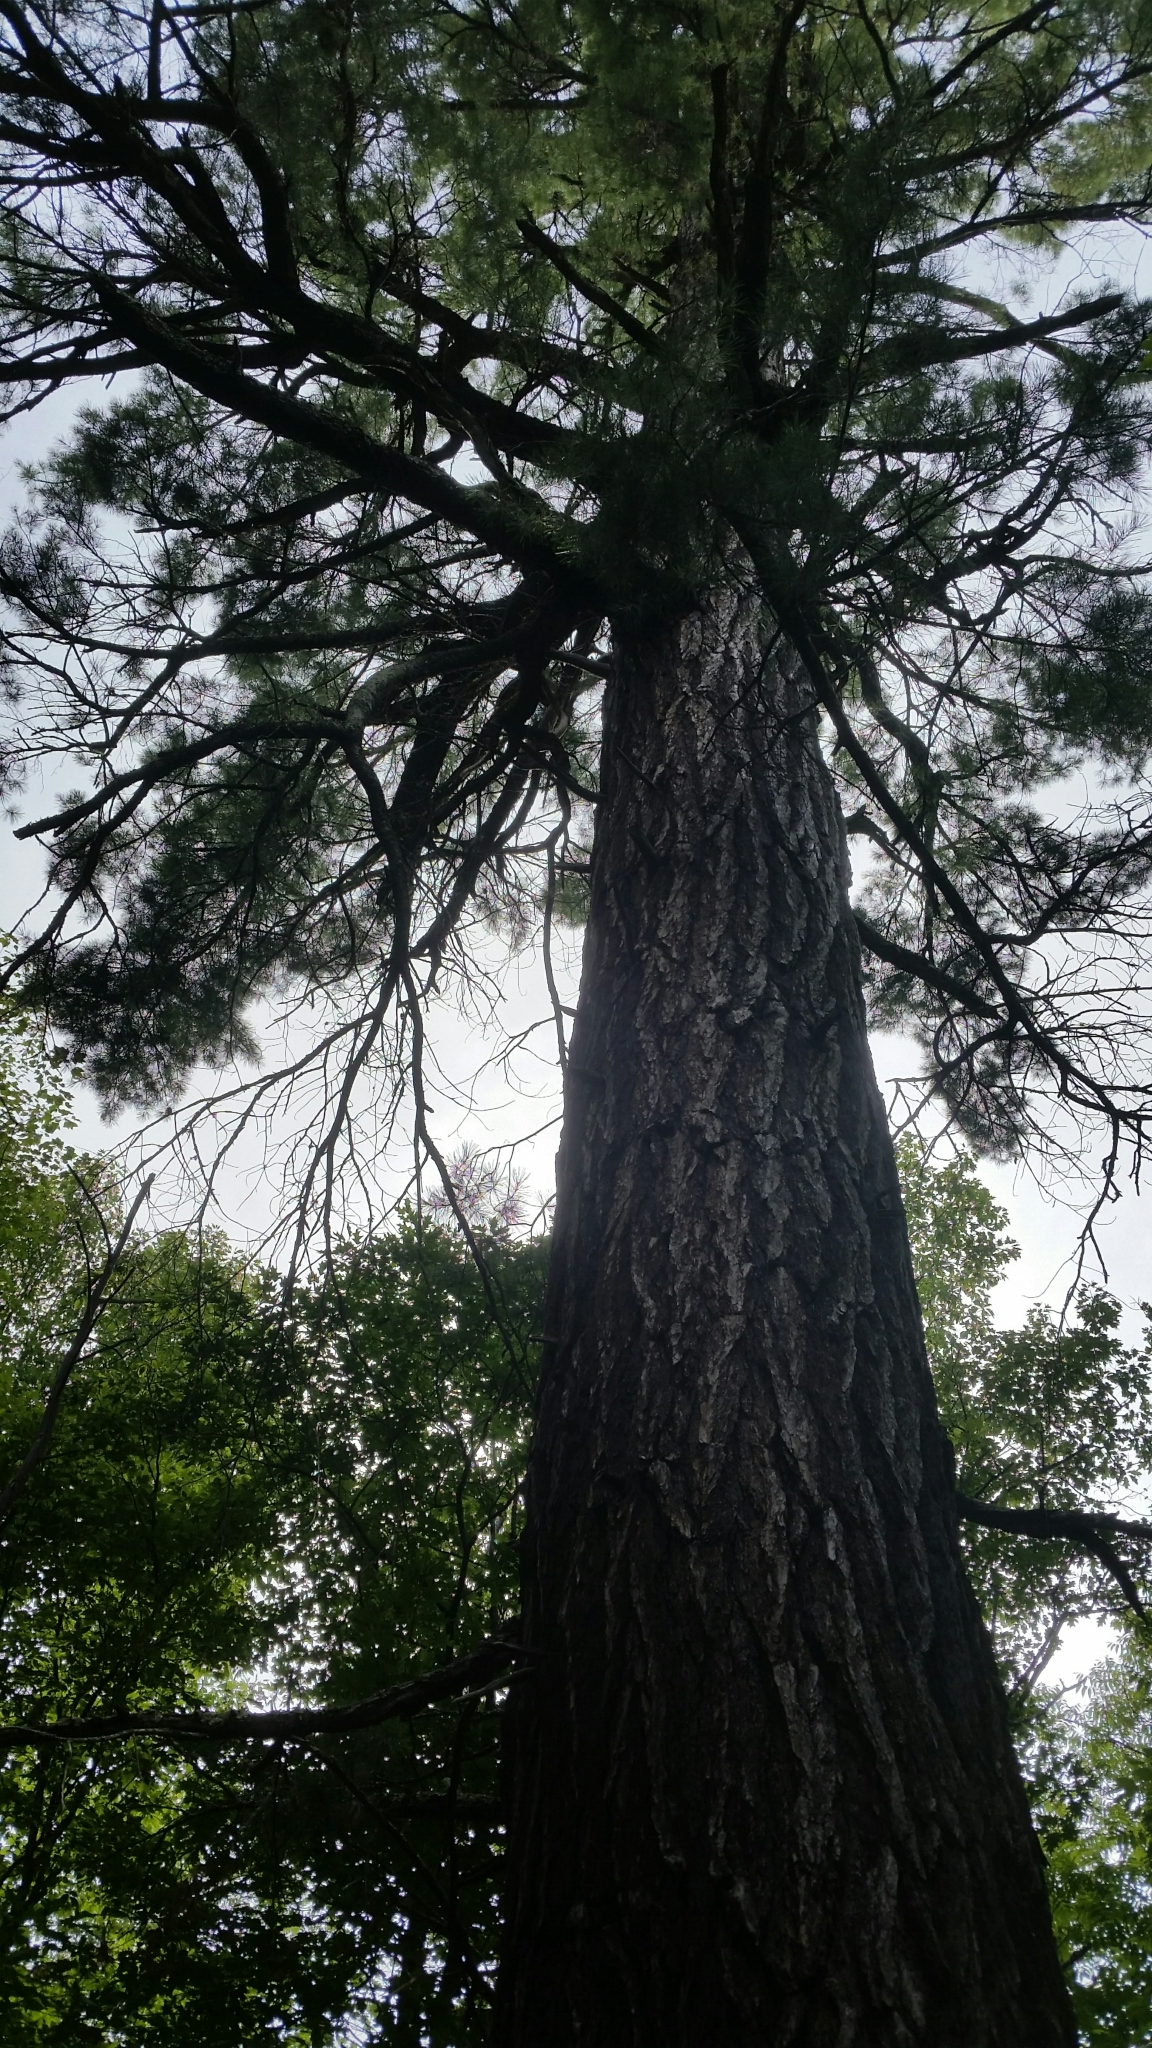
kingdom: Plantae
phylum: Tracheophyta
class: Pinopsida
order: Pinales
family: Pinaceae
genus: Pinus
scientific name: Pinus strobus
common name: Weymouth pine
